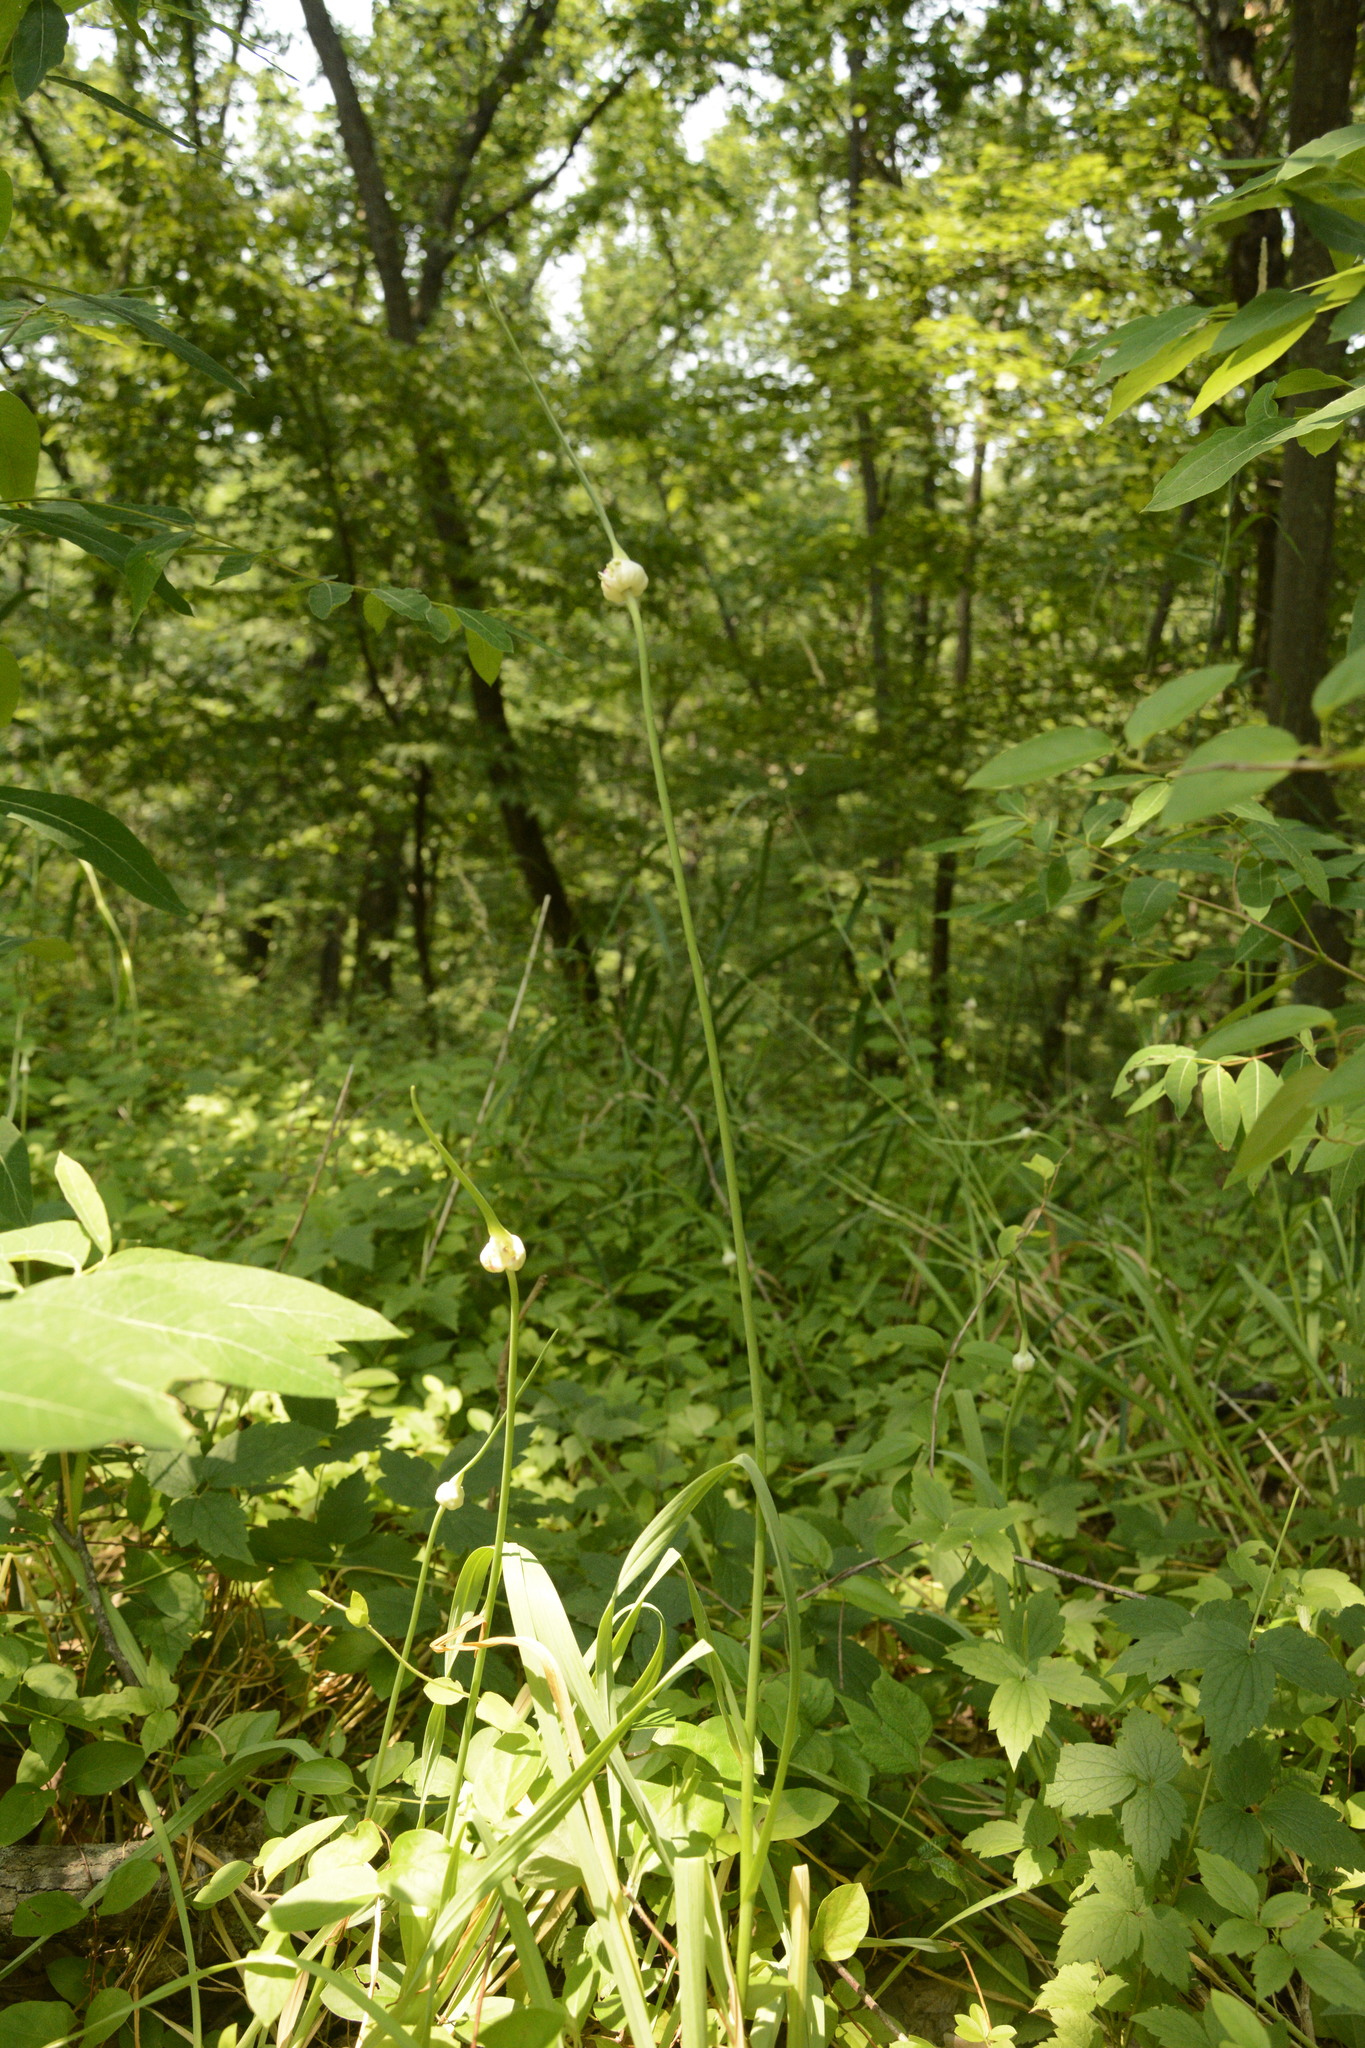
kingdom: Plantae
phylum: Tracheophyta
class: Liliopsida
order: Asparagales
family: Amaryllidaceae
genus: Allium
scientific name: Allium sativum
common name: Garlic
